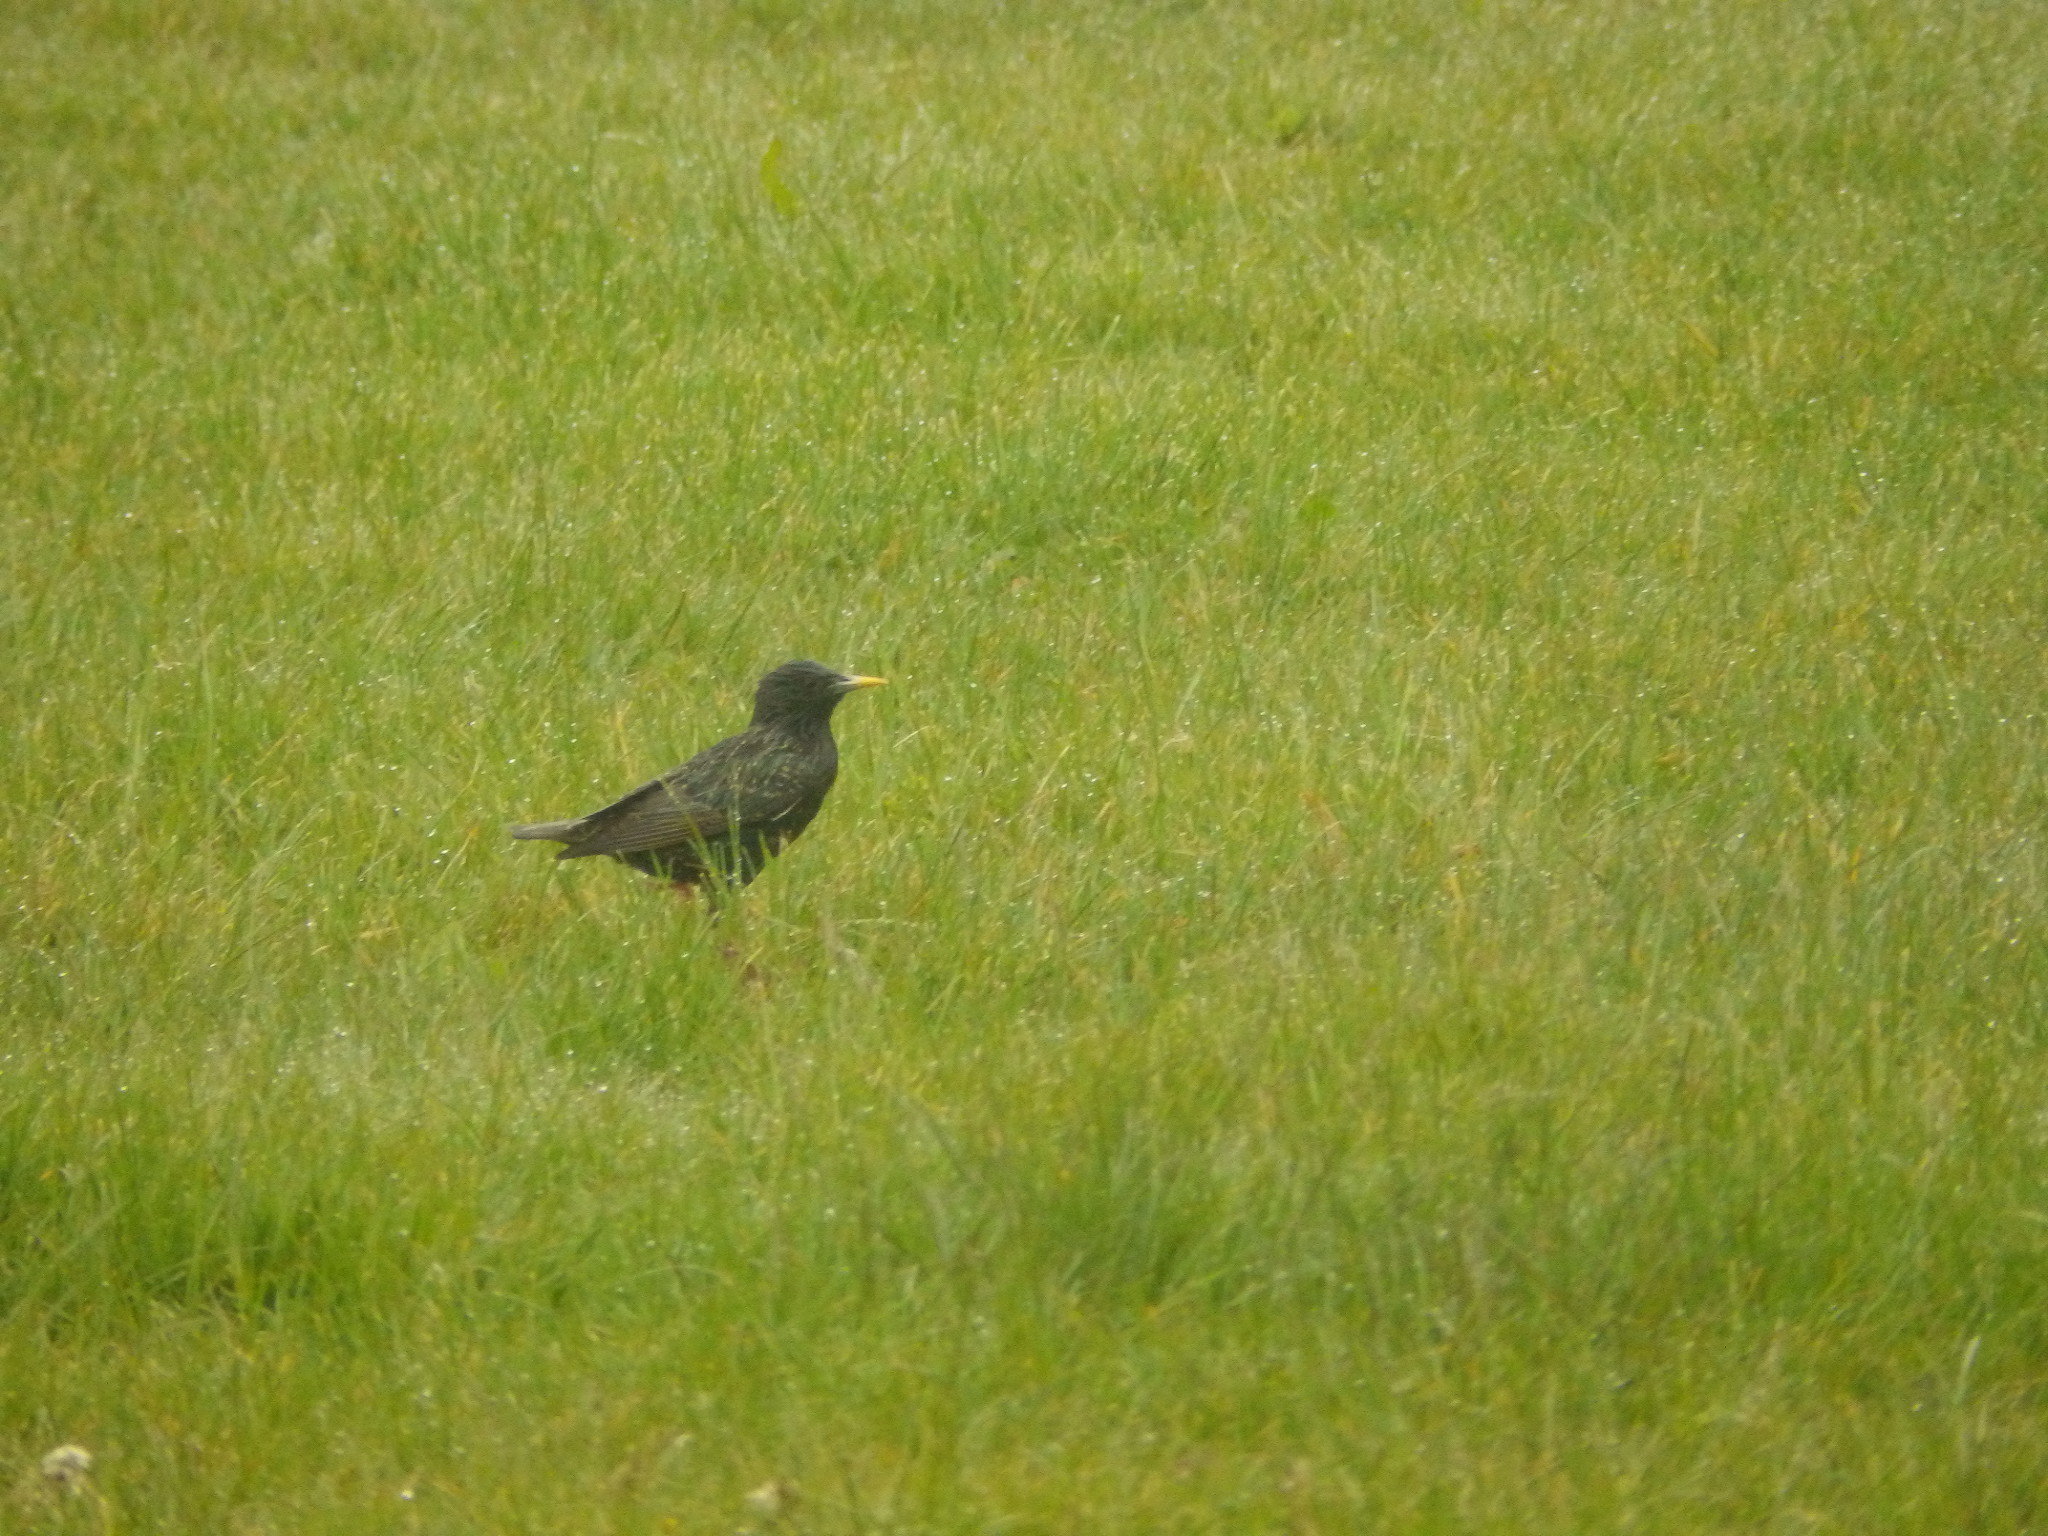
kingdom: Animalia
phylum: Chordata
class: Aves
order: Passeriformes
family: Sturnidae
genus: Sturnus
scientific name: Sturnus vulgaris
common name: Common starling
